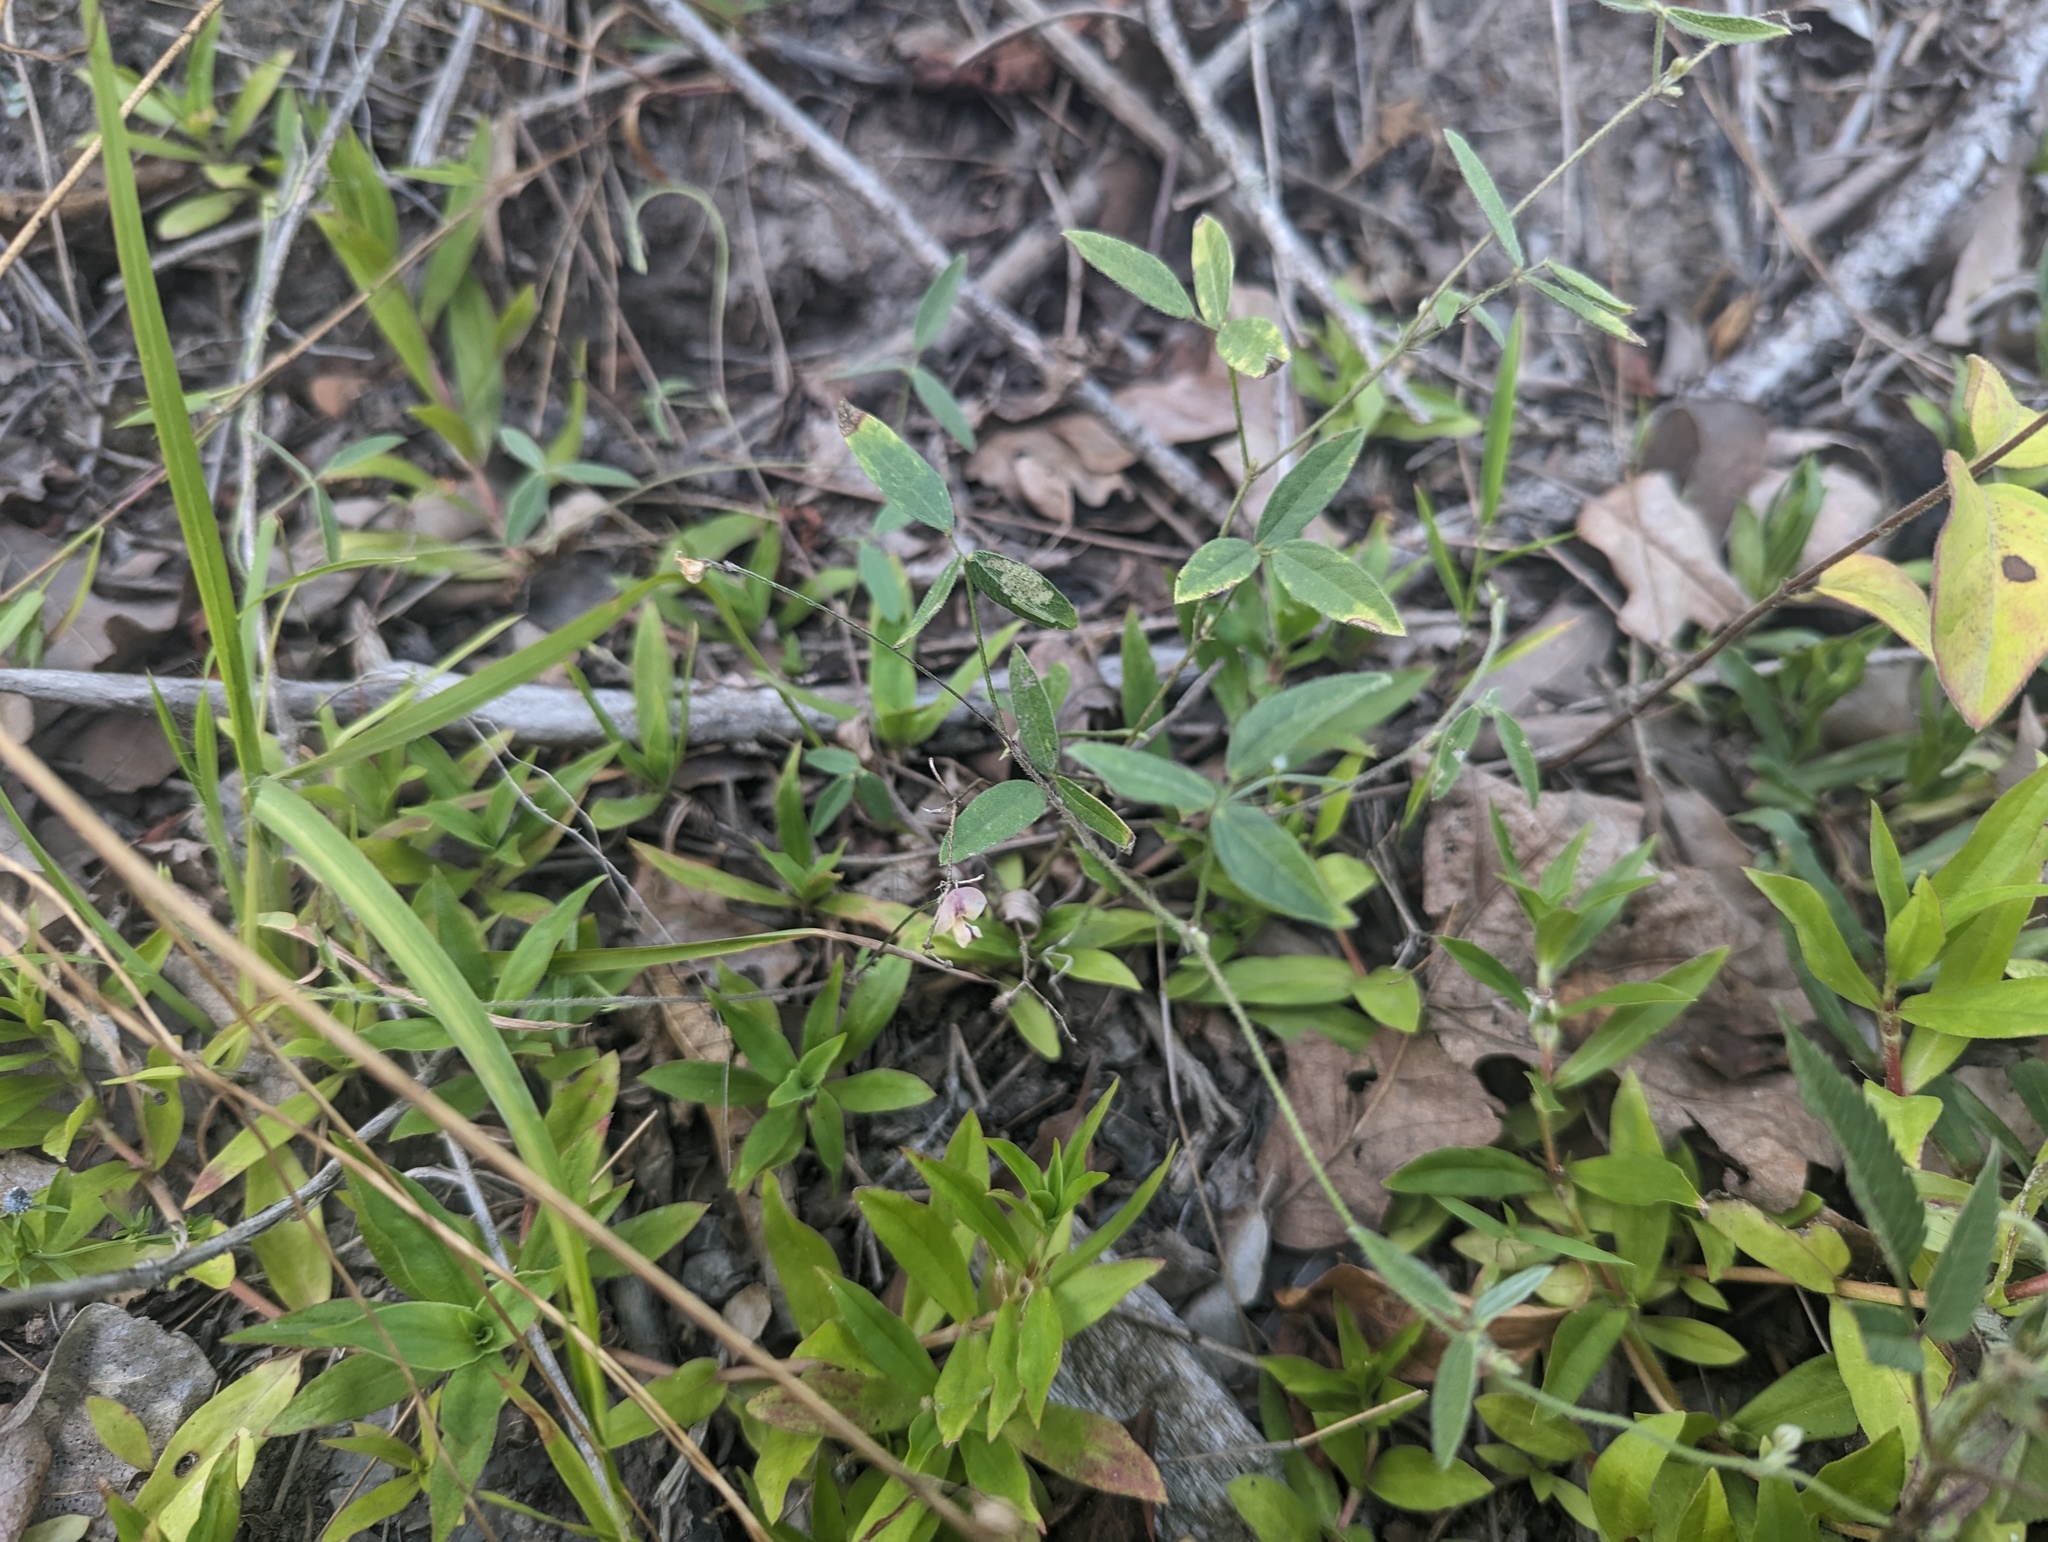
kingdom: Plantae
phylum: Tracheophyta
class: Magnoliopsida
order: Fabales
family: Fabaceae
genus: Strophostyles
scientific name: Strophostyles leiosperma
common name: Smooth-seed wild bean
